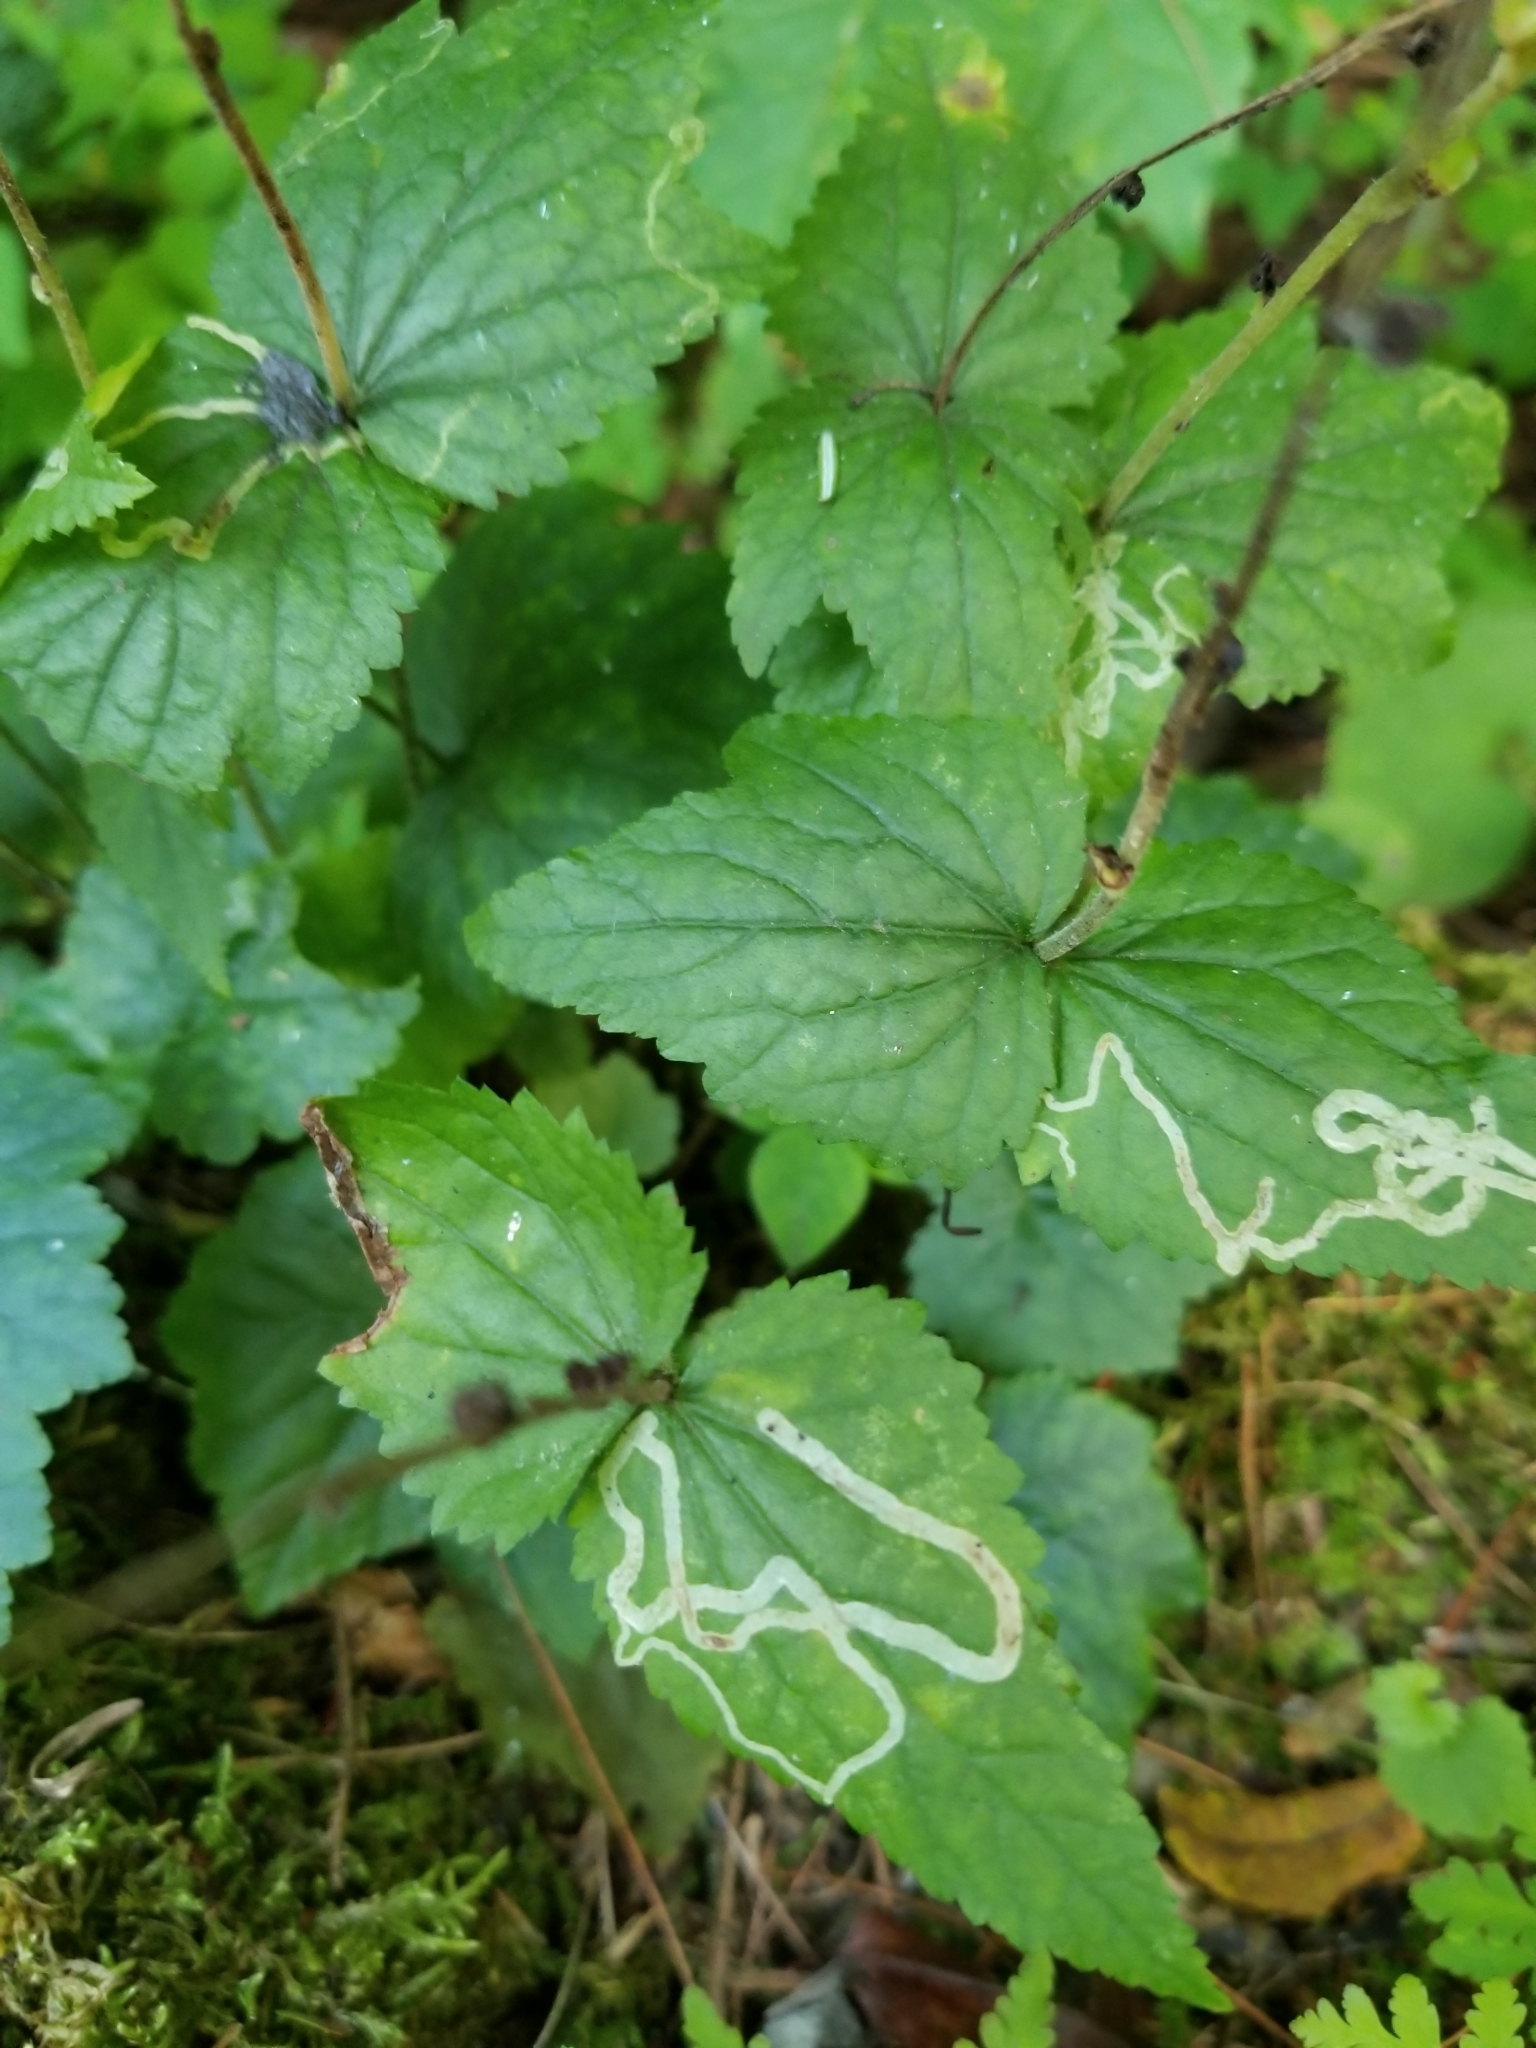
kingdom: Plantae
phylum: Tracheophyta
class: Magnoliopsida
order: Saxifragales
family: Saxifragaceae
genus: Mitella
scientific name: Mitella diphylla
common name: Coolwort
